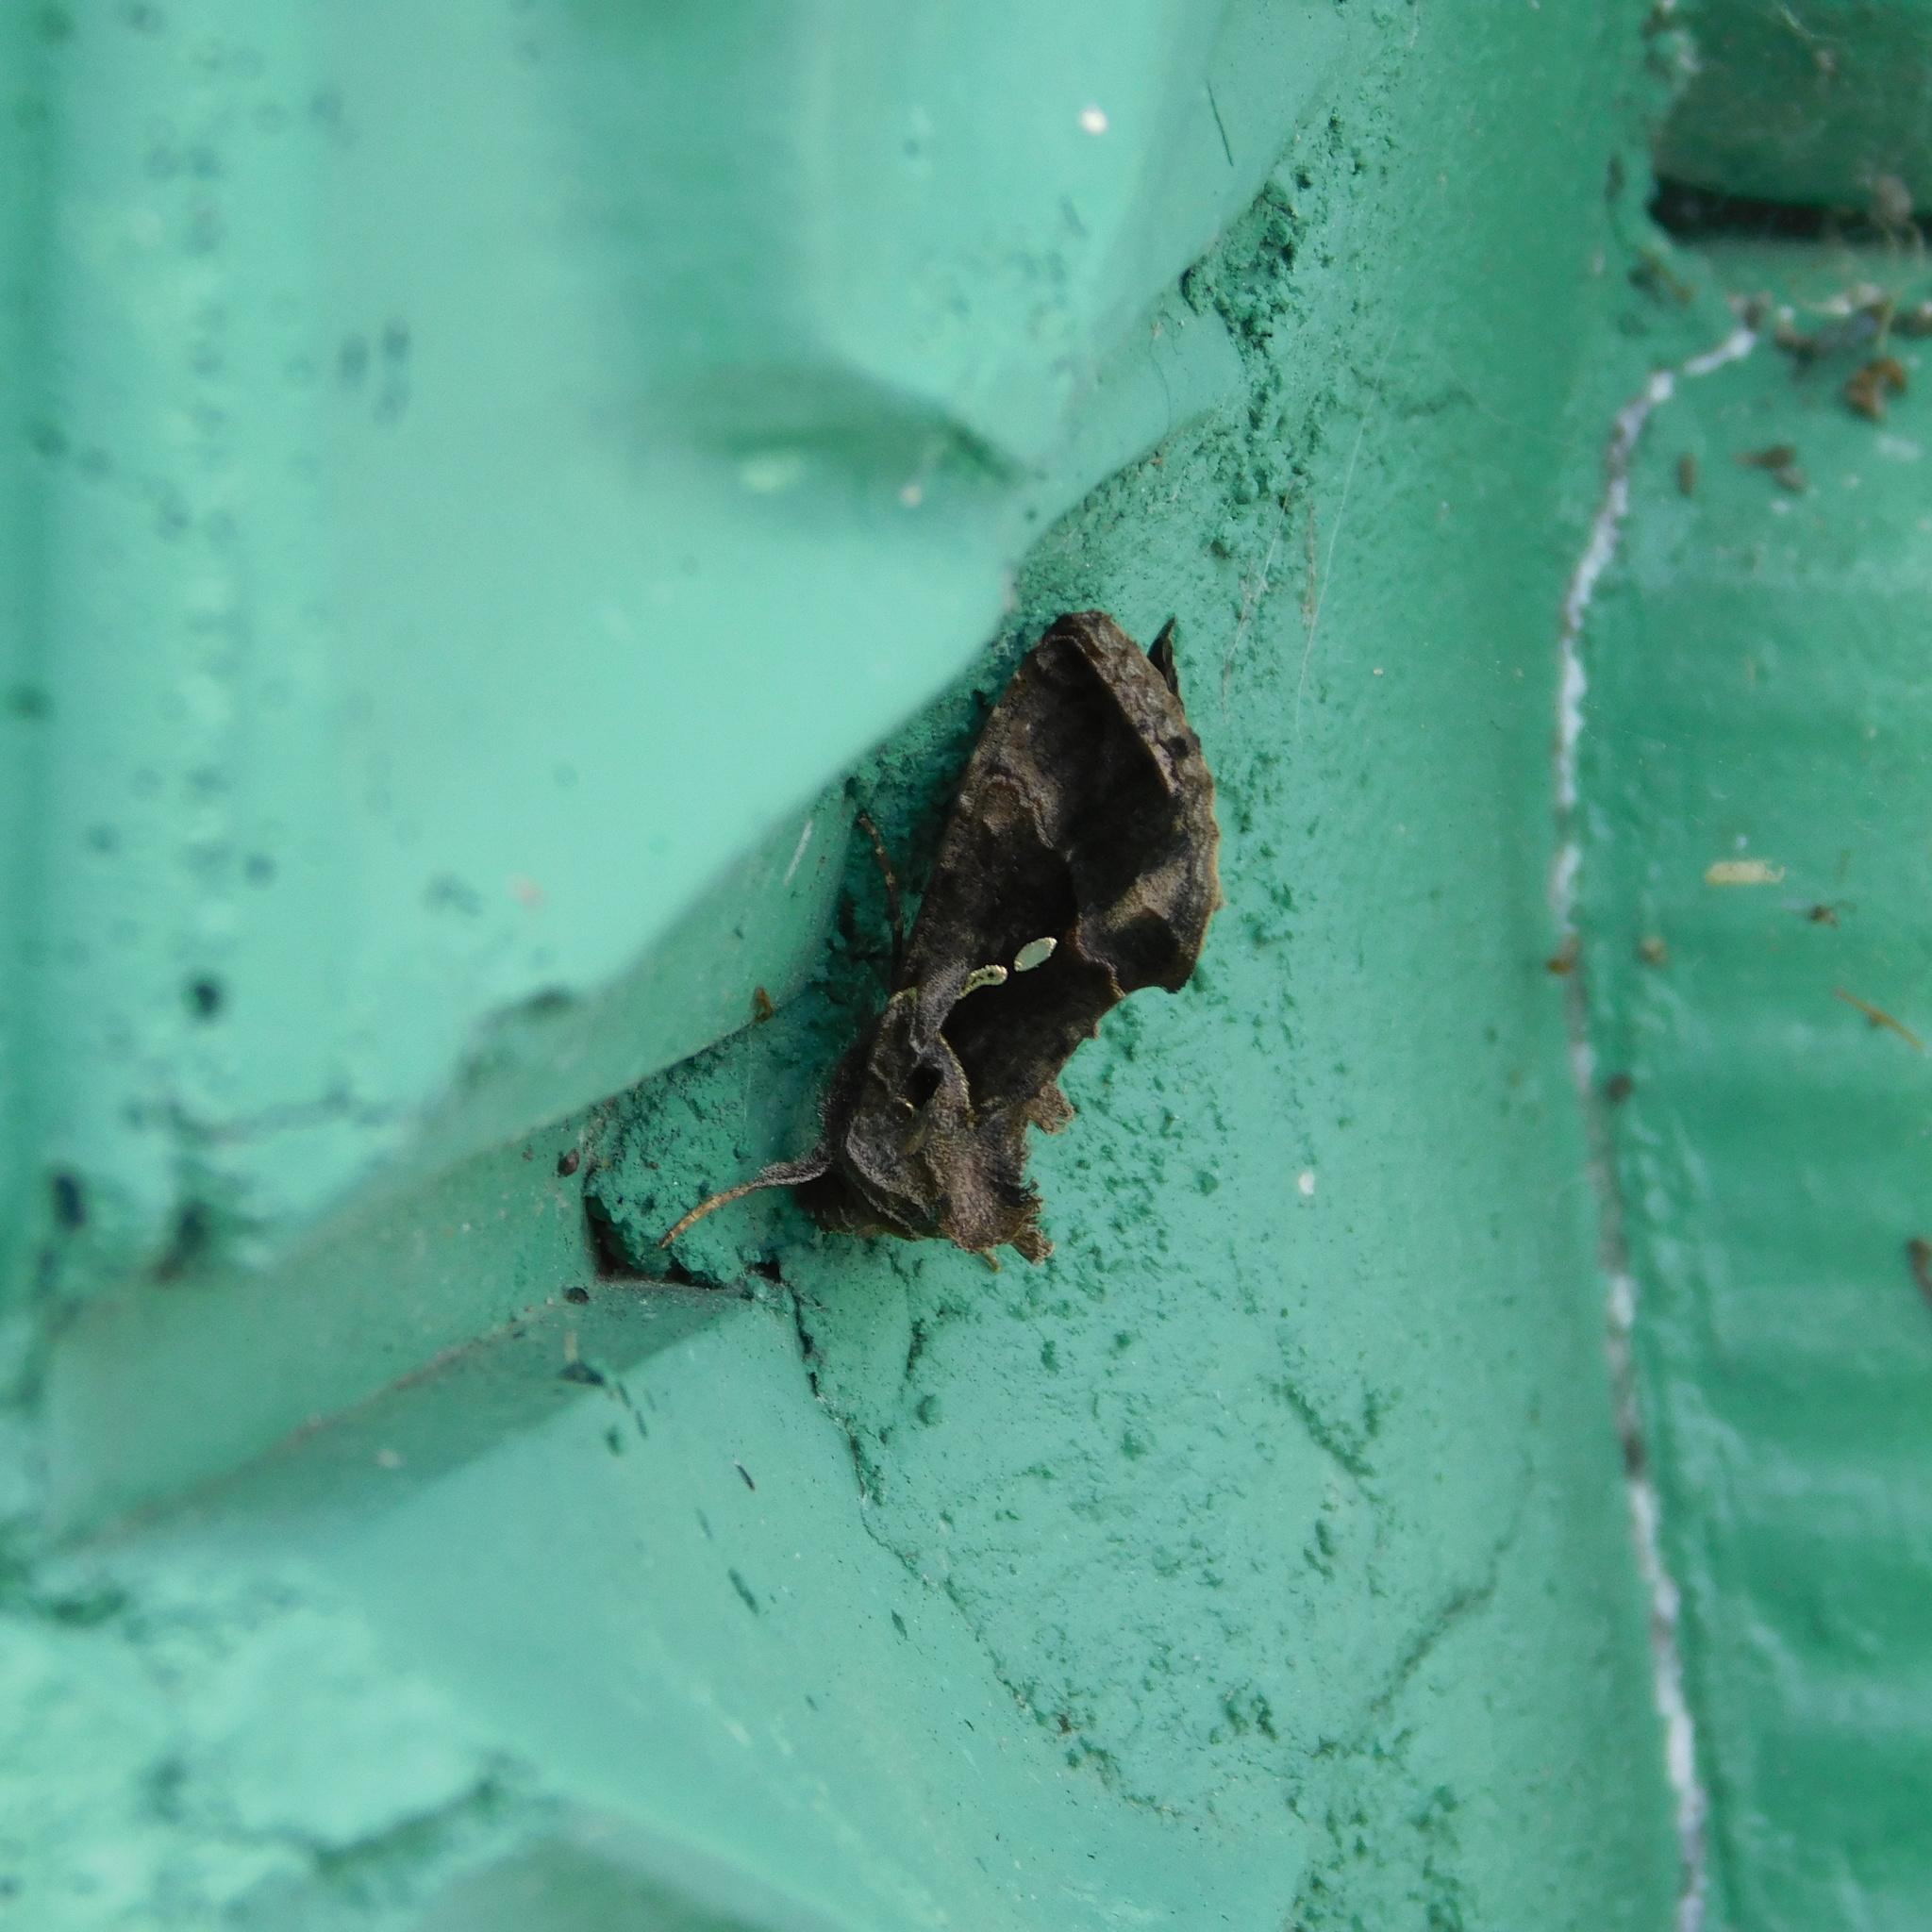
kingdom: Animalia
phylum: Arthropoda
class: Insecta
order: Lepidoptera
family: Noctuidae
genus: Chrysodeixis
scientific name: Chrysodeixis eriosoma
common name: Green garden looper
